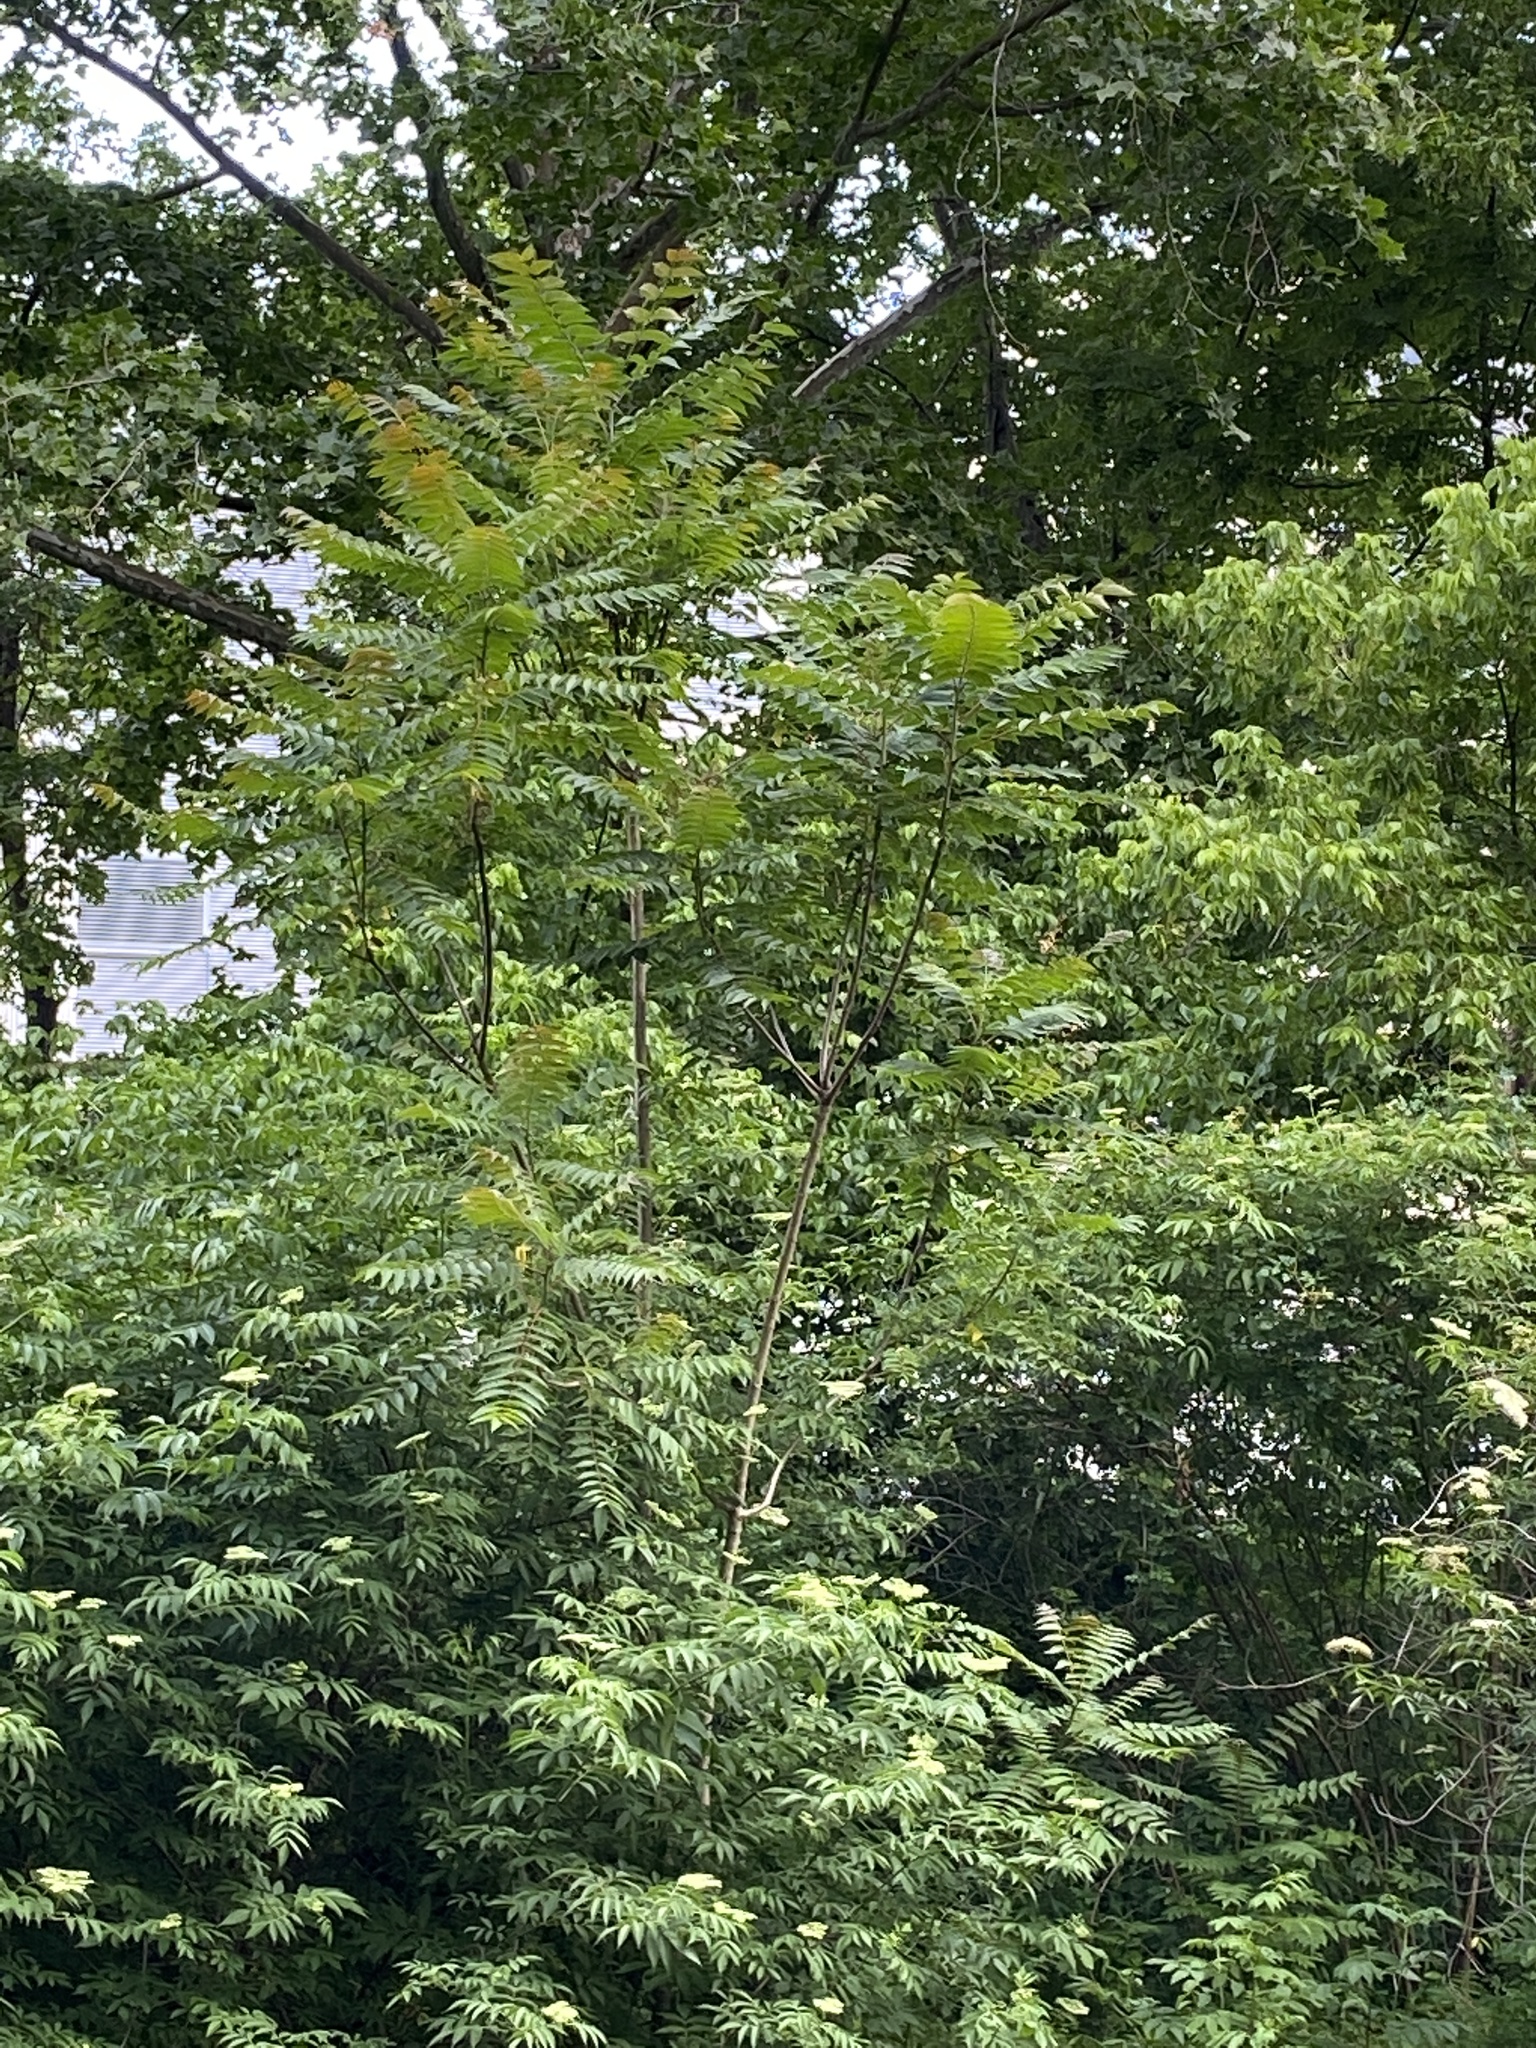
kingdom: Plantae
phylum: Tracheophyta
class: Magnoliopsida
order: Sapindales
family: Simaroubaceae
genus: Ailanthus
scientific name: Ailanthus altissima
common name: Tree-of-heaven
